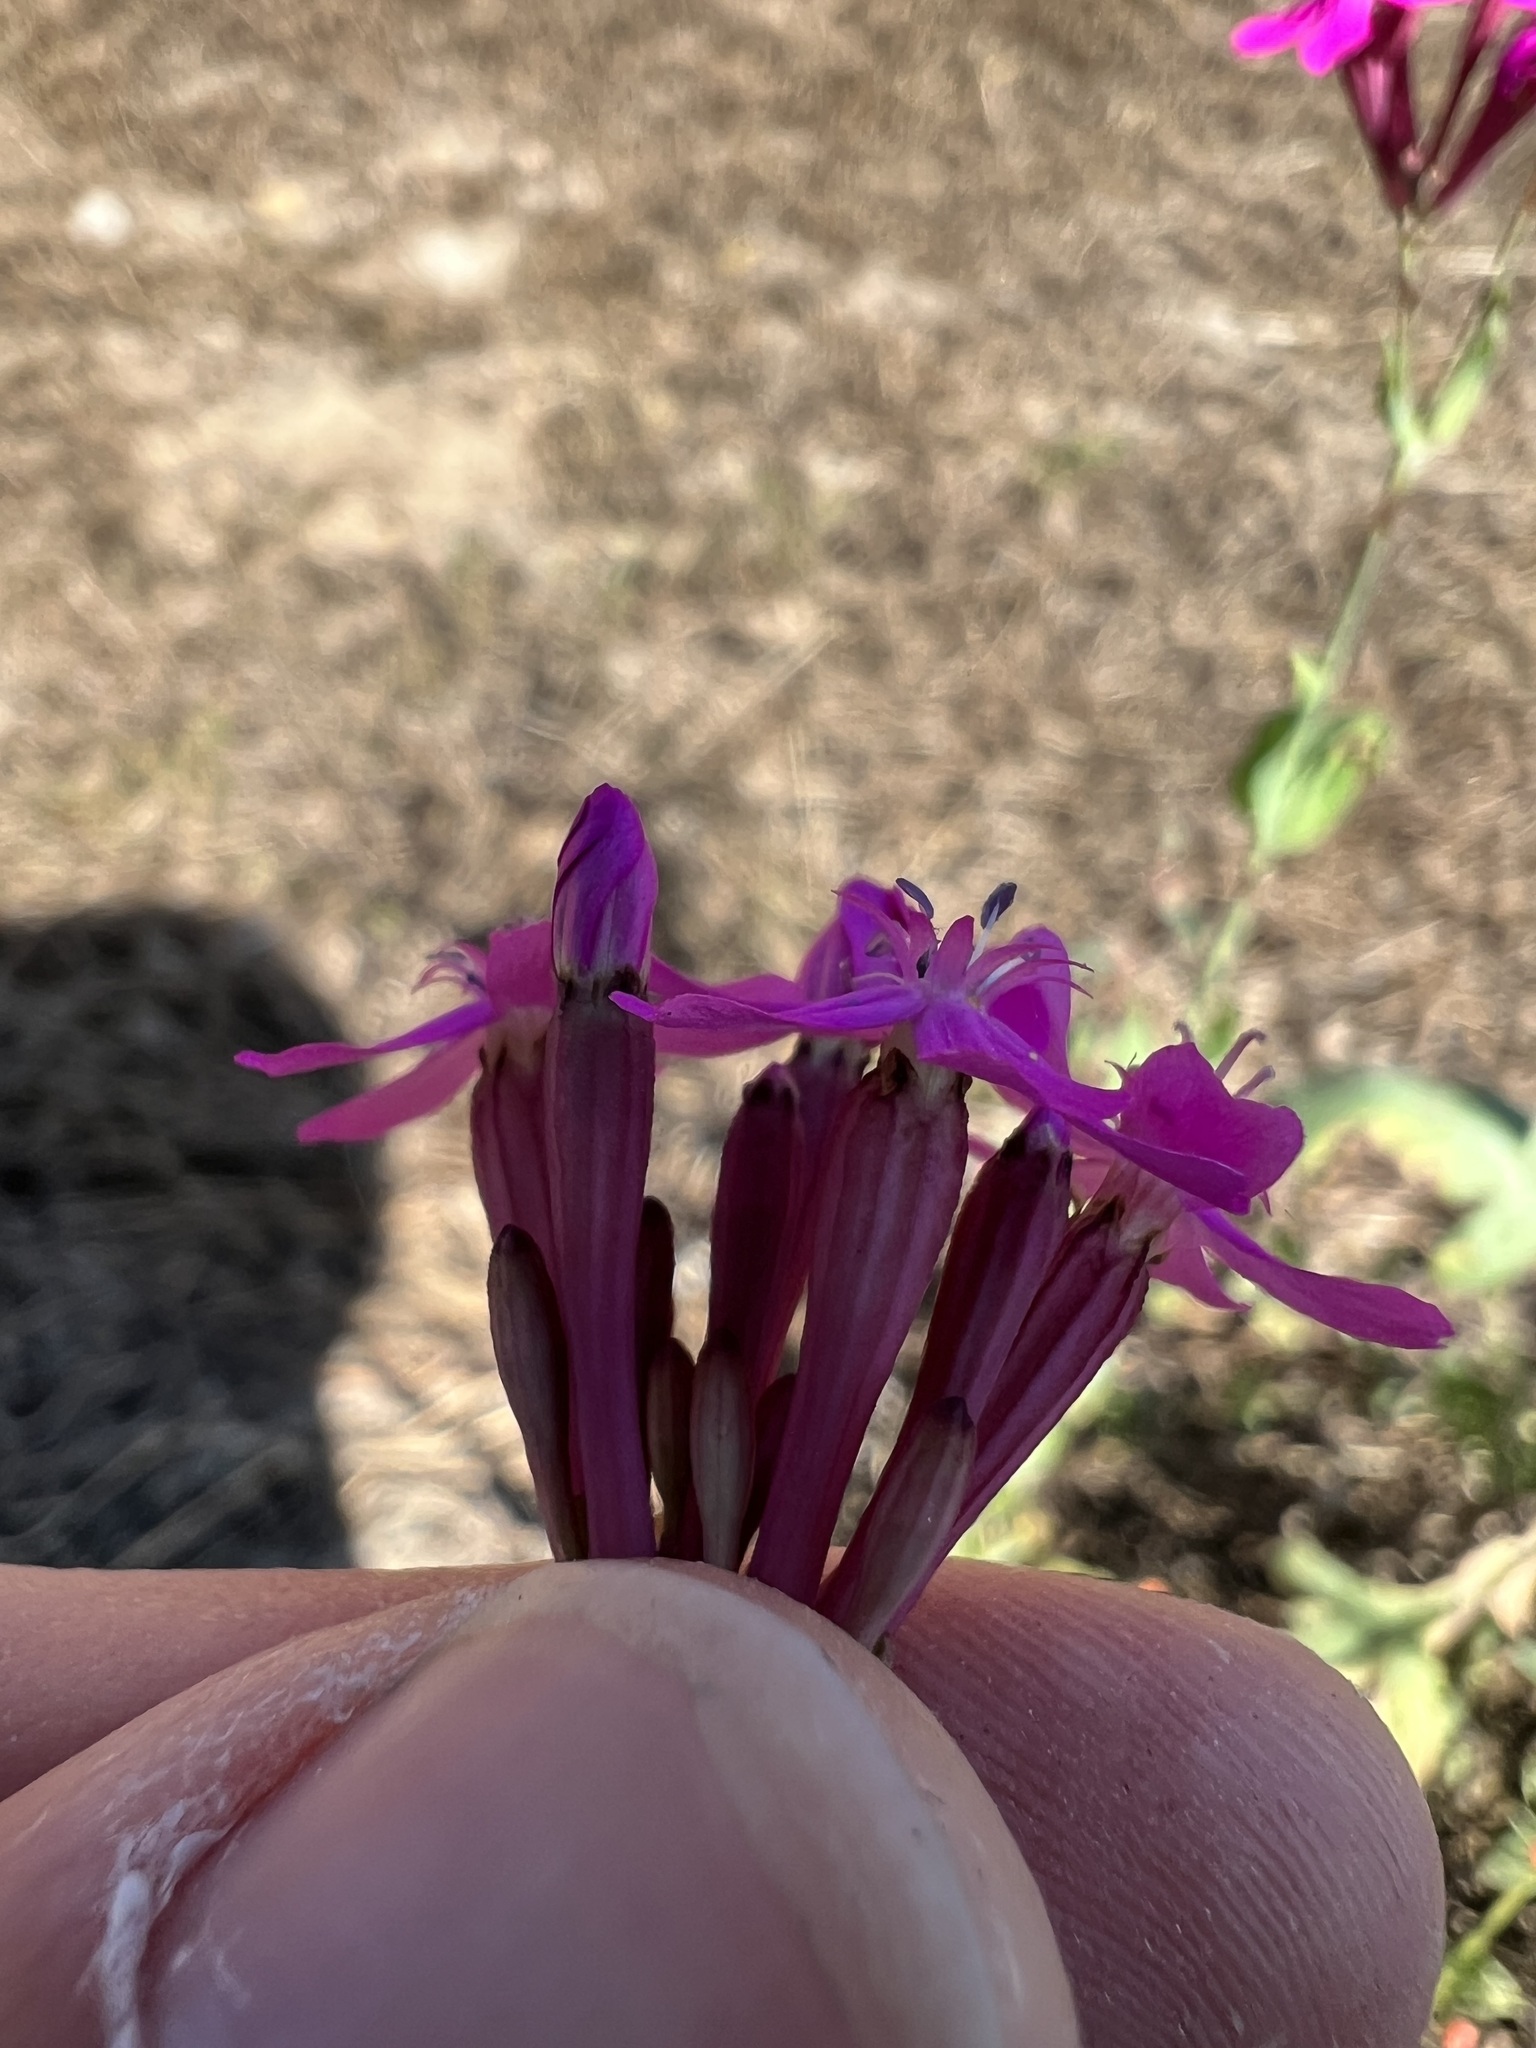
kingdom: Plantae
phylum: Tracheophyta
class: Magnoliopsida
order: Caryophyllales
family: Caryophyllaceae
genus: Atocion
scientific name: Atocion armeria
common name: Sweet william catchfly
